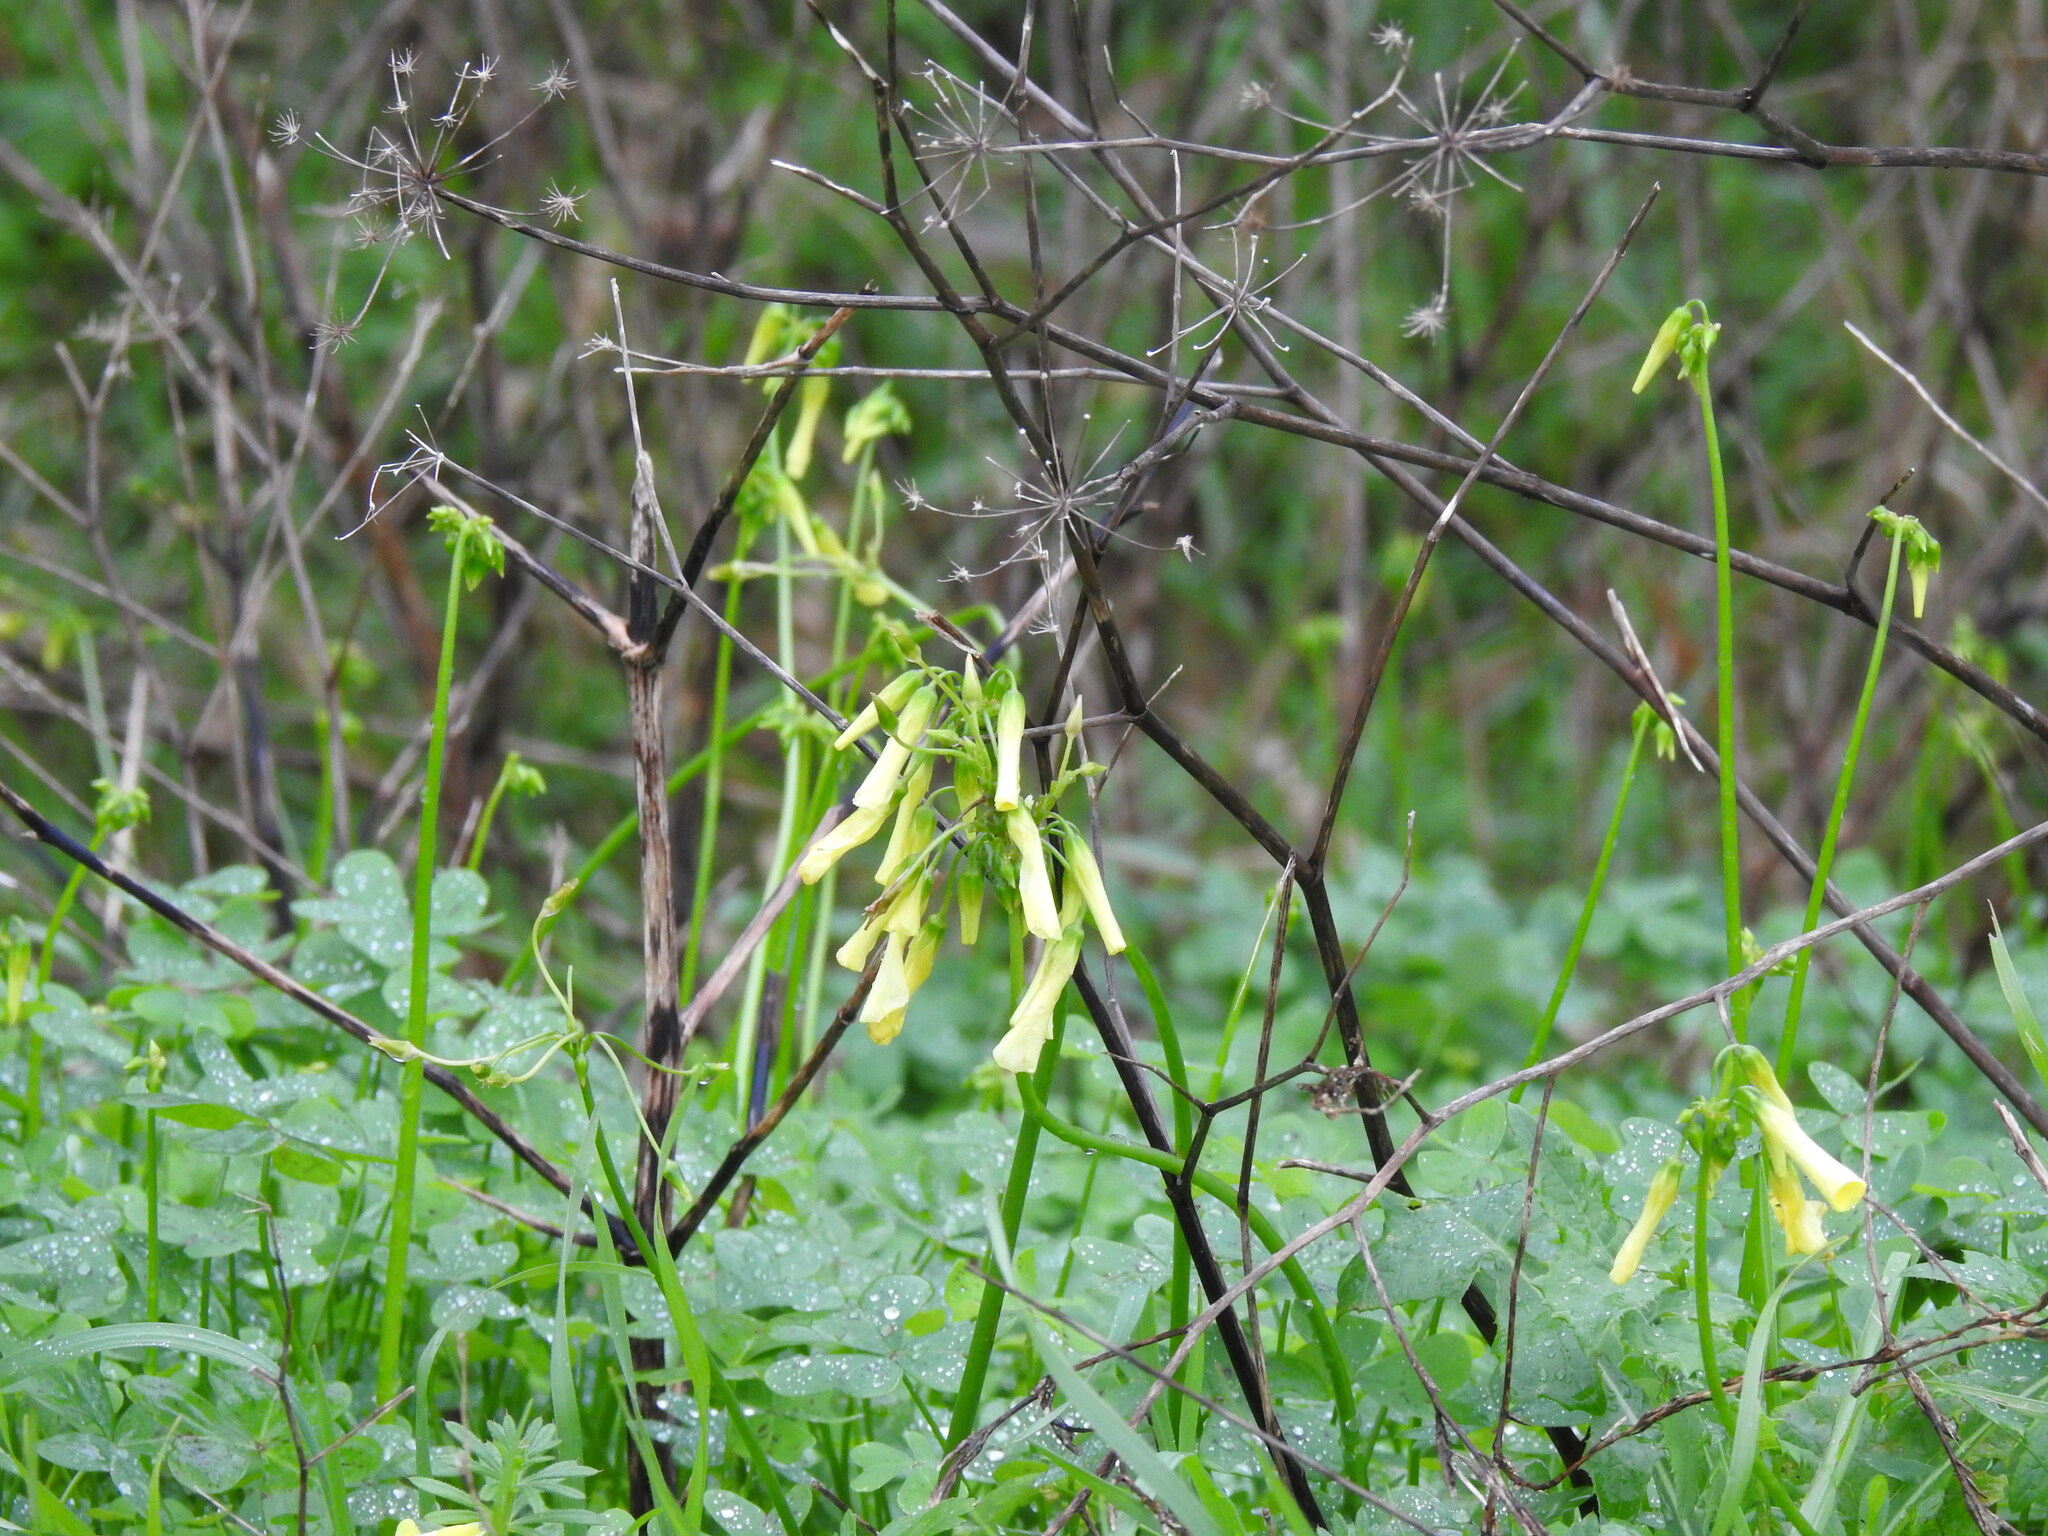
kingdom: Plantae
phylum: Tracheophyta
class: Magnoliopsida
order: Oxalidales
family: Oxalidaceae
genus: Oxalis
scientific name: Oxalis pes-caprae
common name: Bermuda-buttercup
